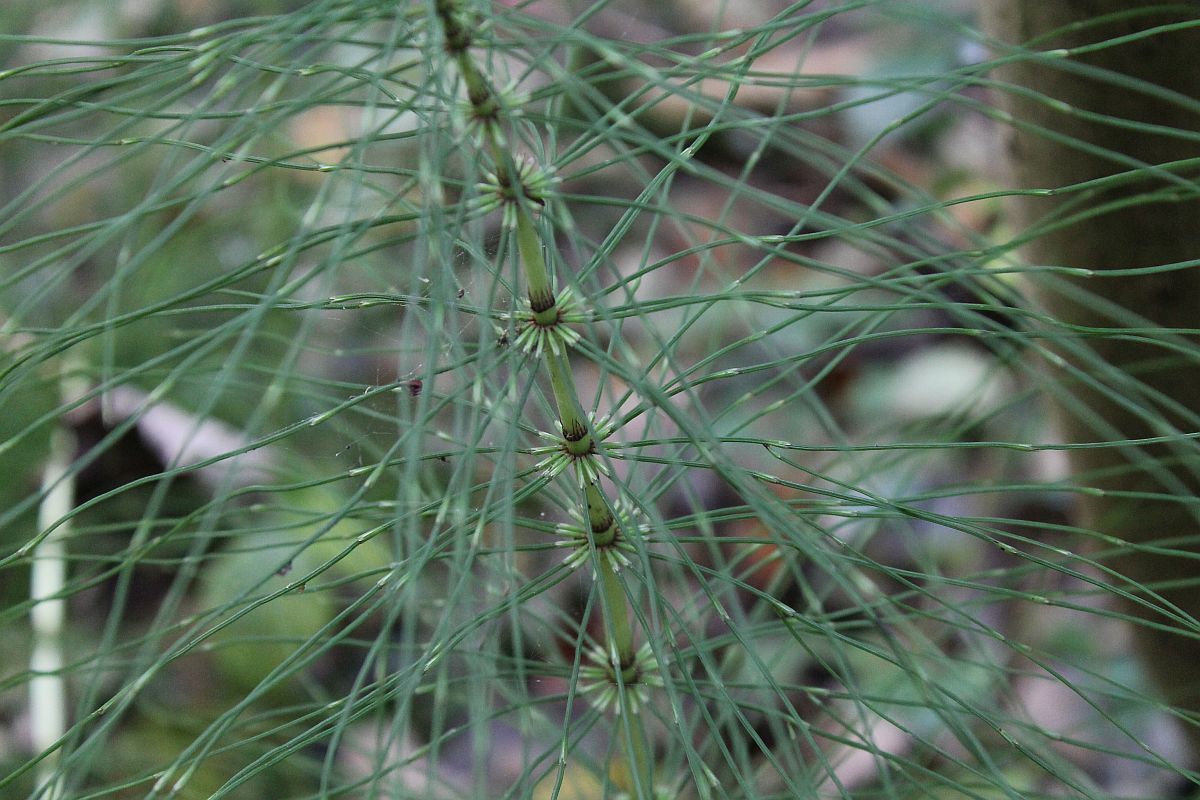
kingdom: Plantae
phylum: Tracheophyta
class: Polypodiopsida
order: Equisetales
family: Equisetaceae
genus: Equisetum
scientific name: Equisetum telmateia
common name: Great horsetail
